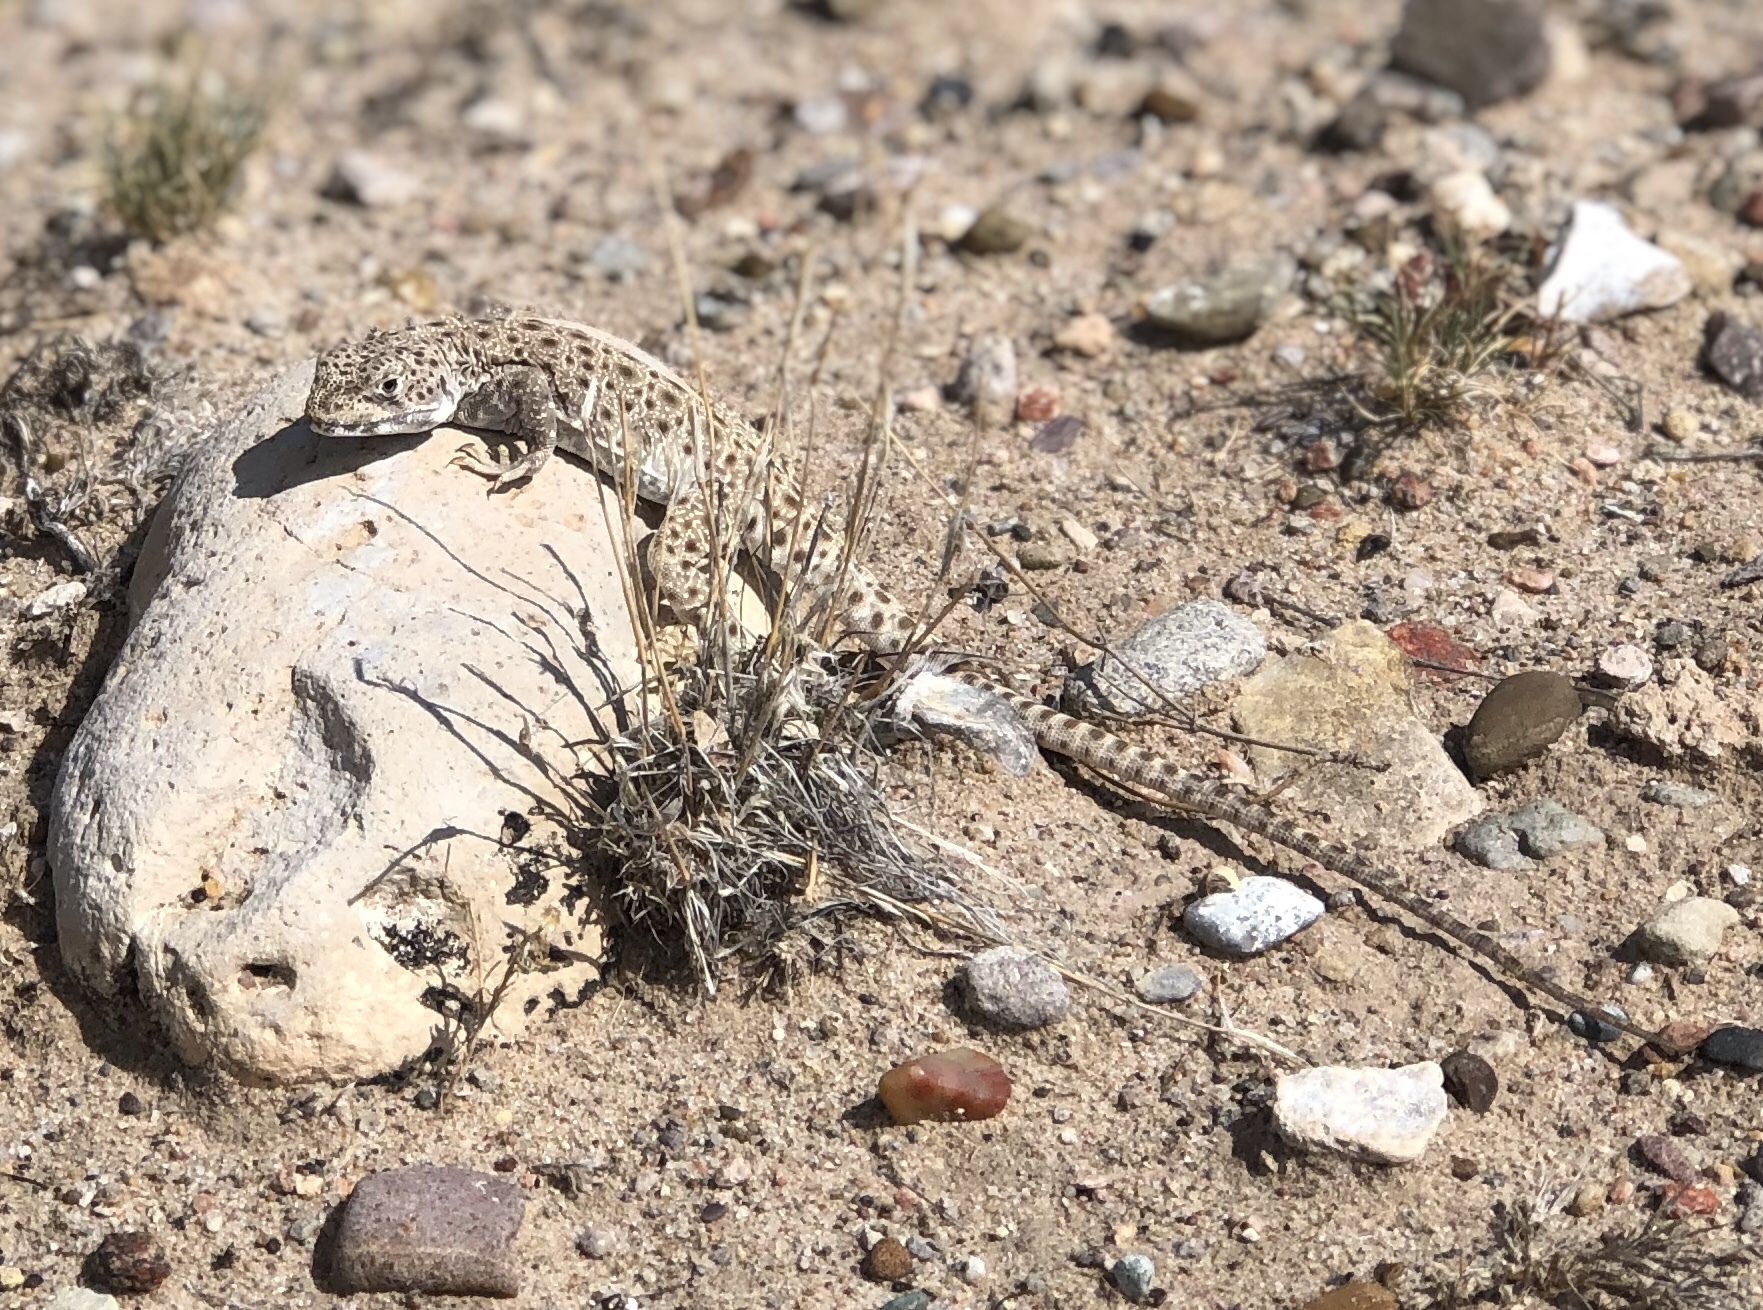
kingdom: Animalia
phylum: Chordata
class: Squamata
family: Crotaphytidae
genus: Gambelia
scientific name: Gambelia wislizenii
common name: Longnose leopard lizard
